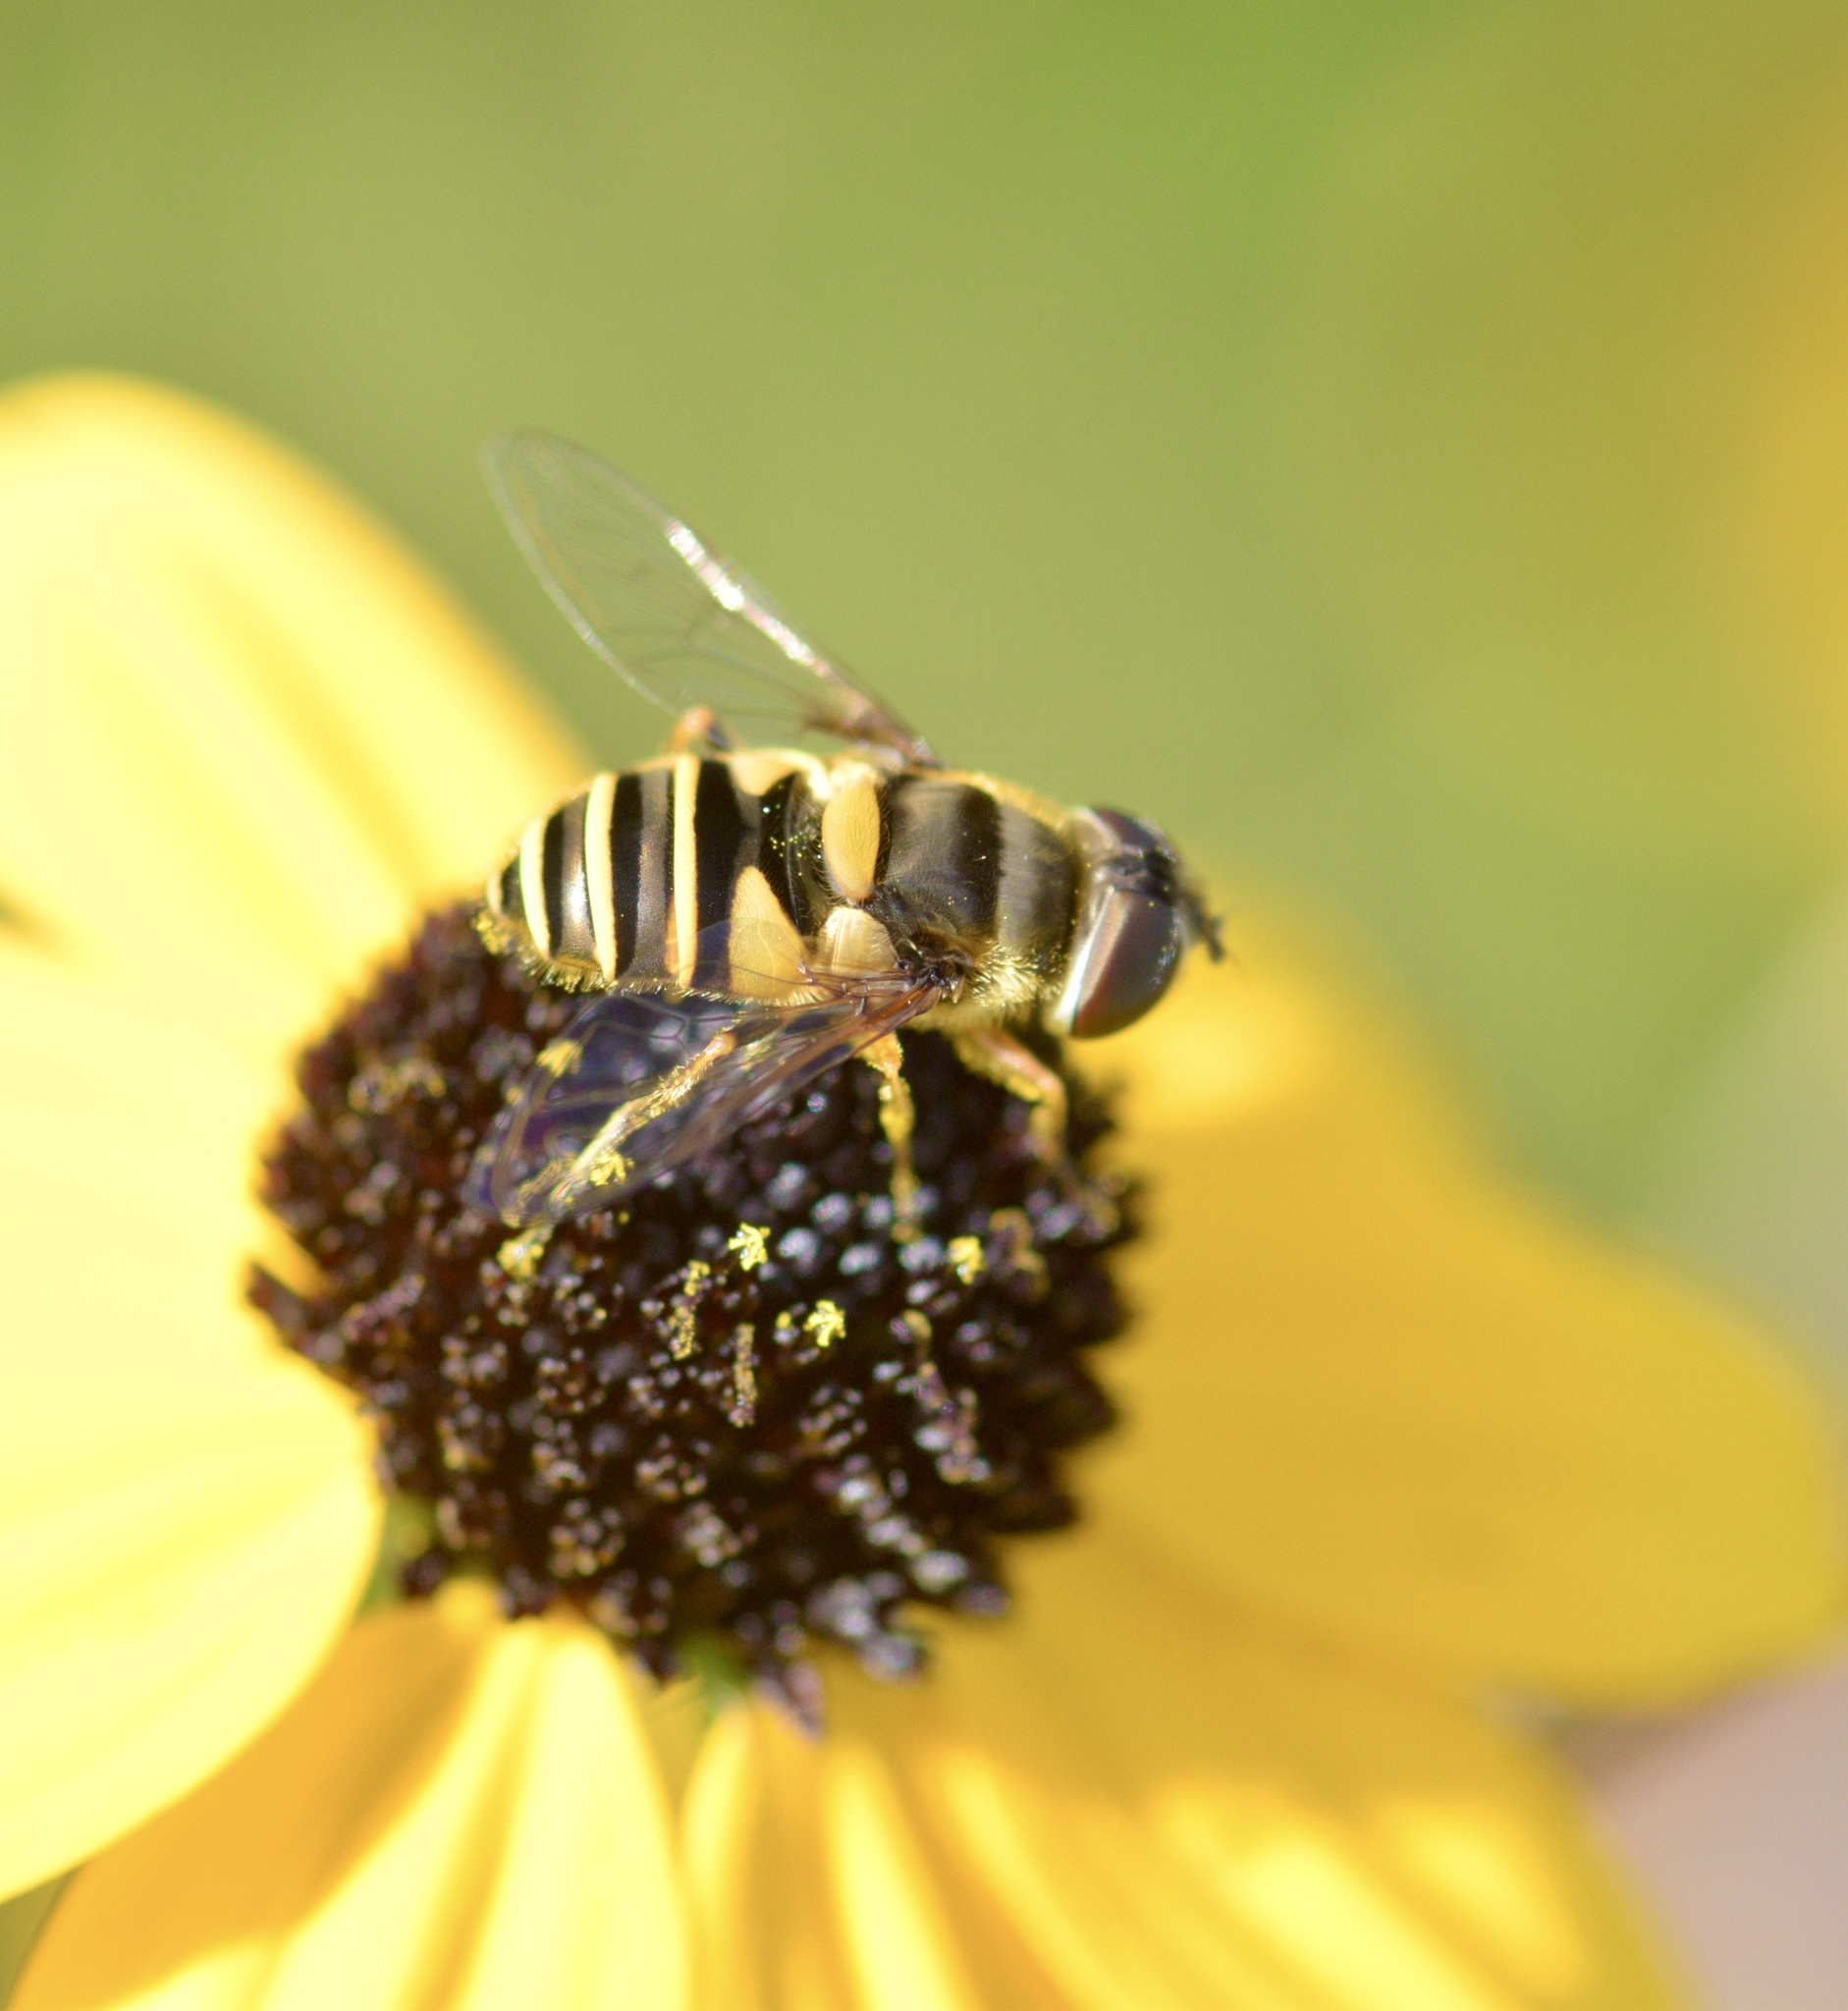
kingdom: Animalia
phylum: Arthropoda
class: Insecta
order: Diptera
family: Syrphidae
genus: Eristalis
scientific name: Eristalis transversa
